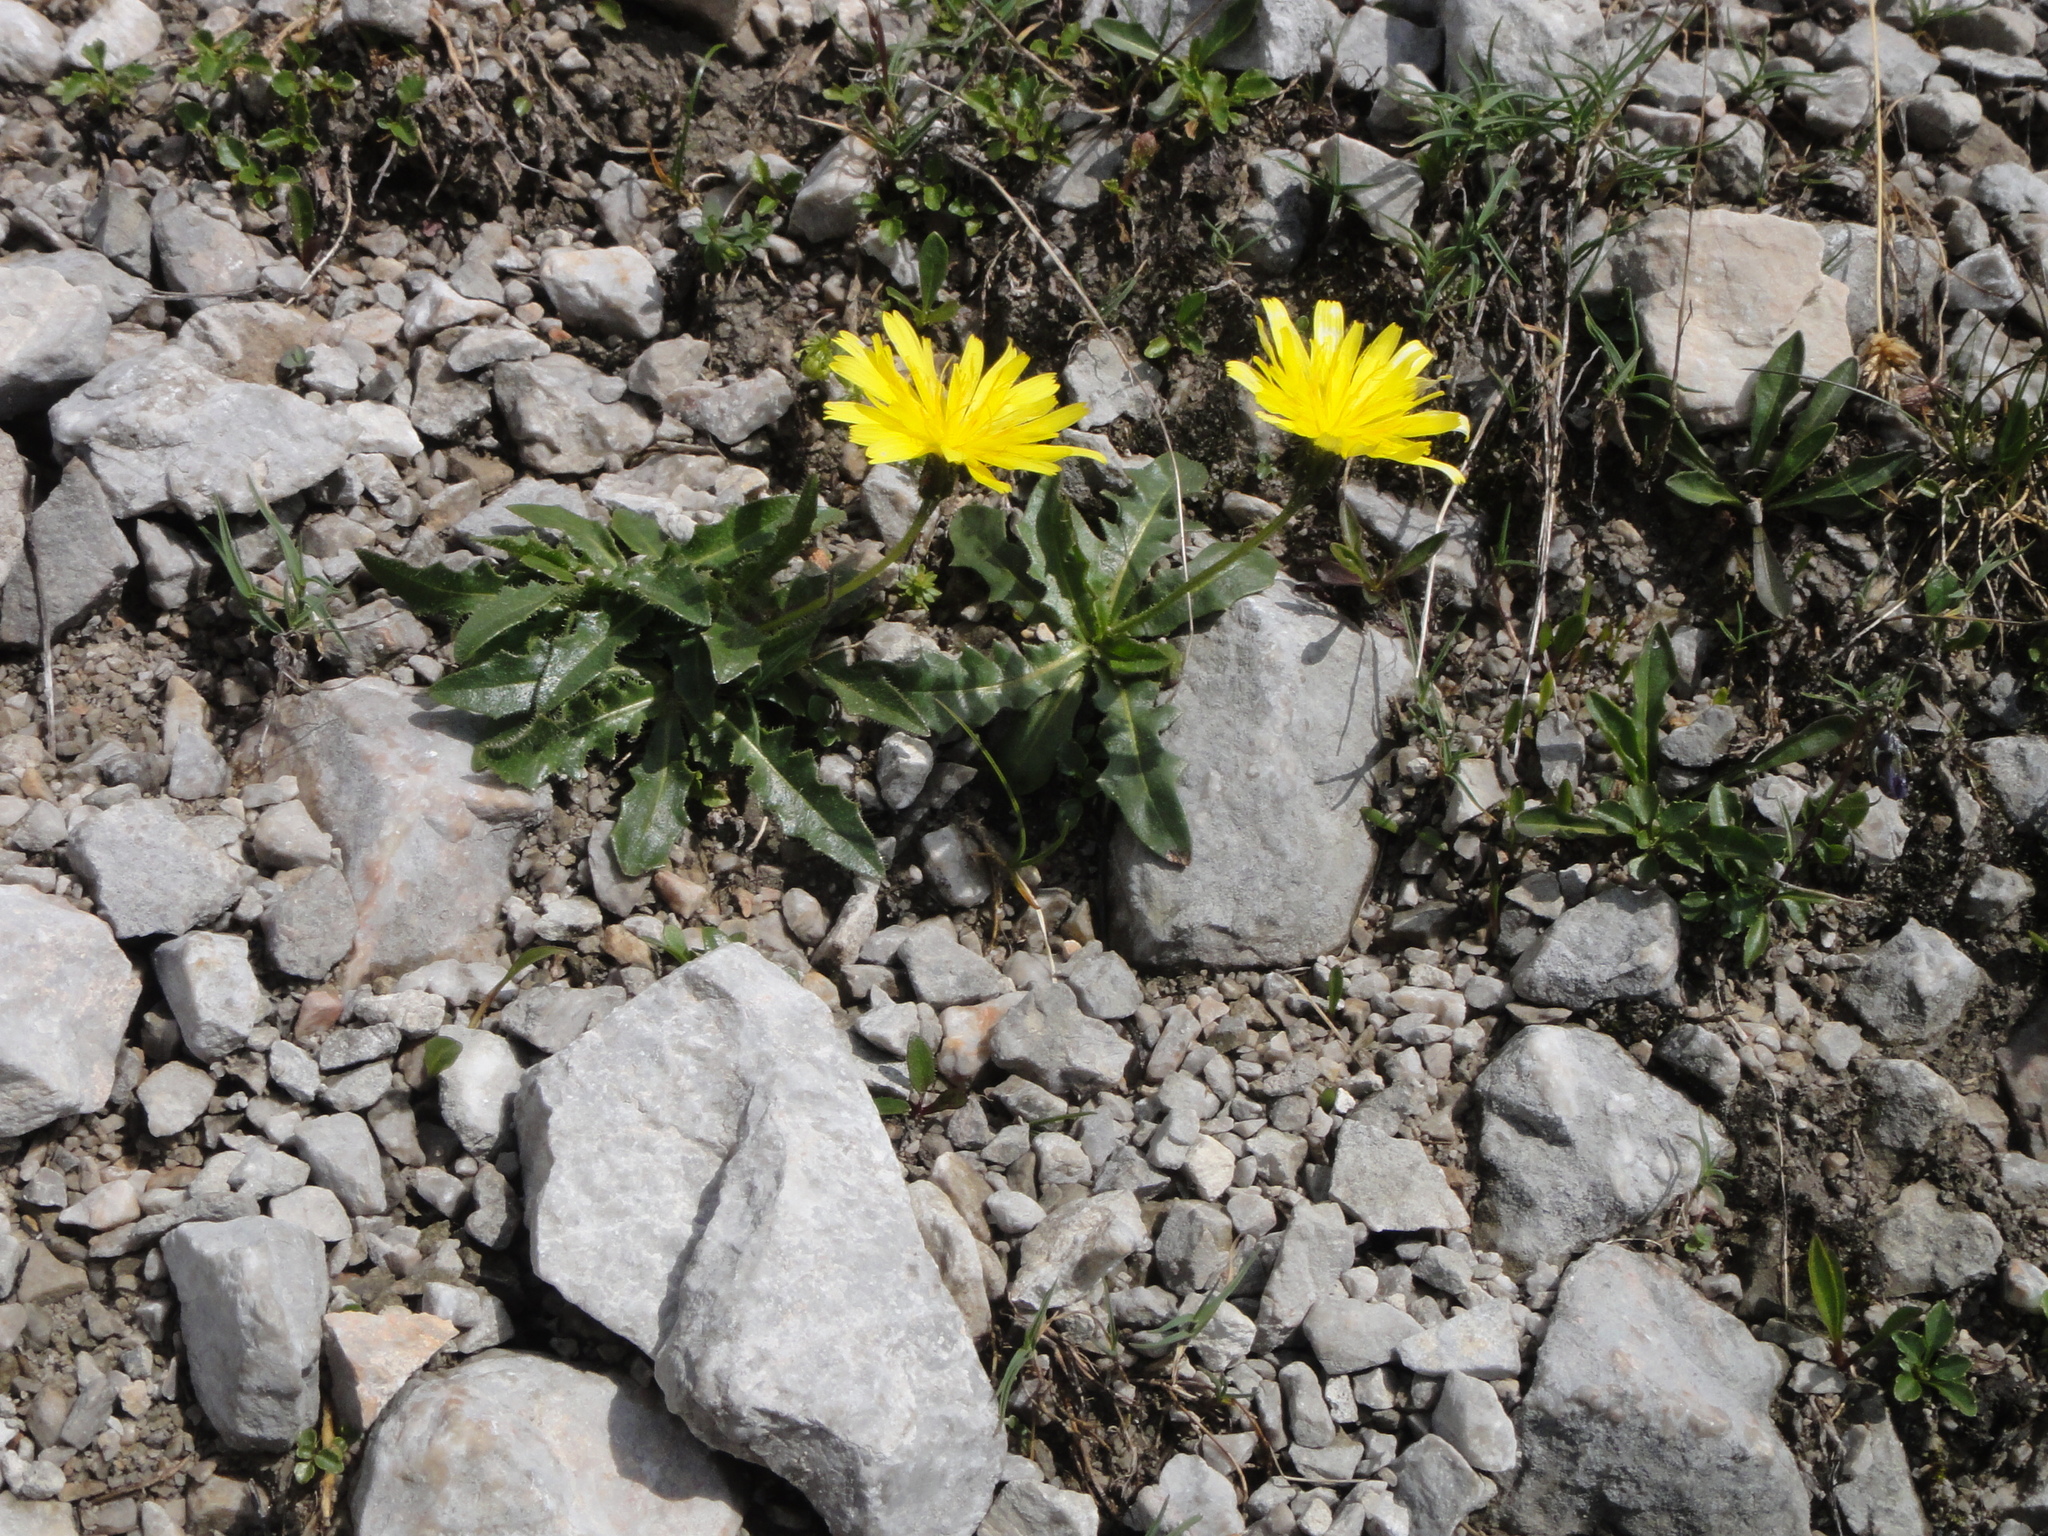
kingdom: Plantae
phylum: Tracheophyta
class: Magnoliopsida
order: Asterales
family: Asteraceae
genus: Leontodon
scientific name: Leontodon hispidus
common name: Rough hawkbit
